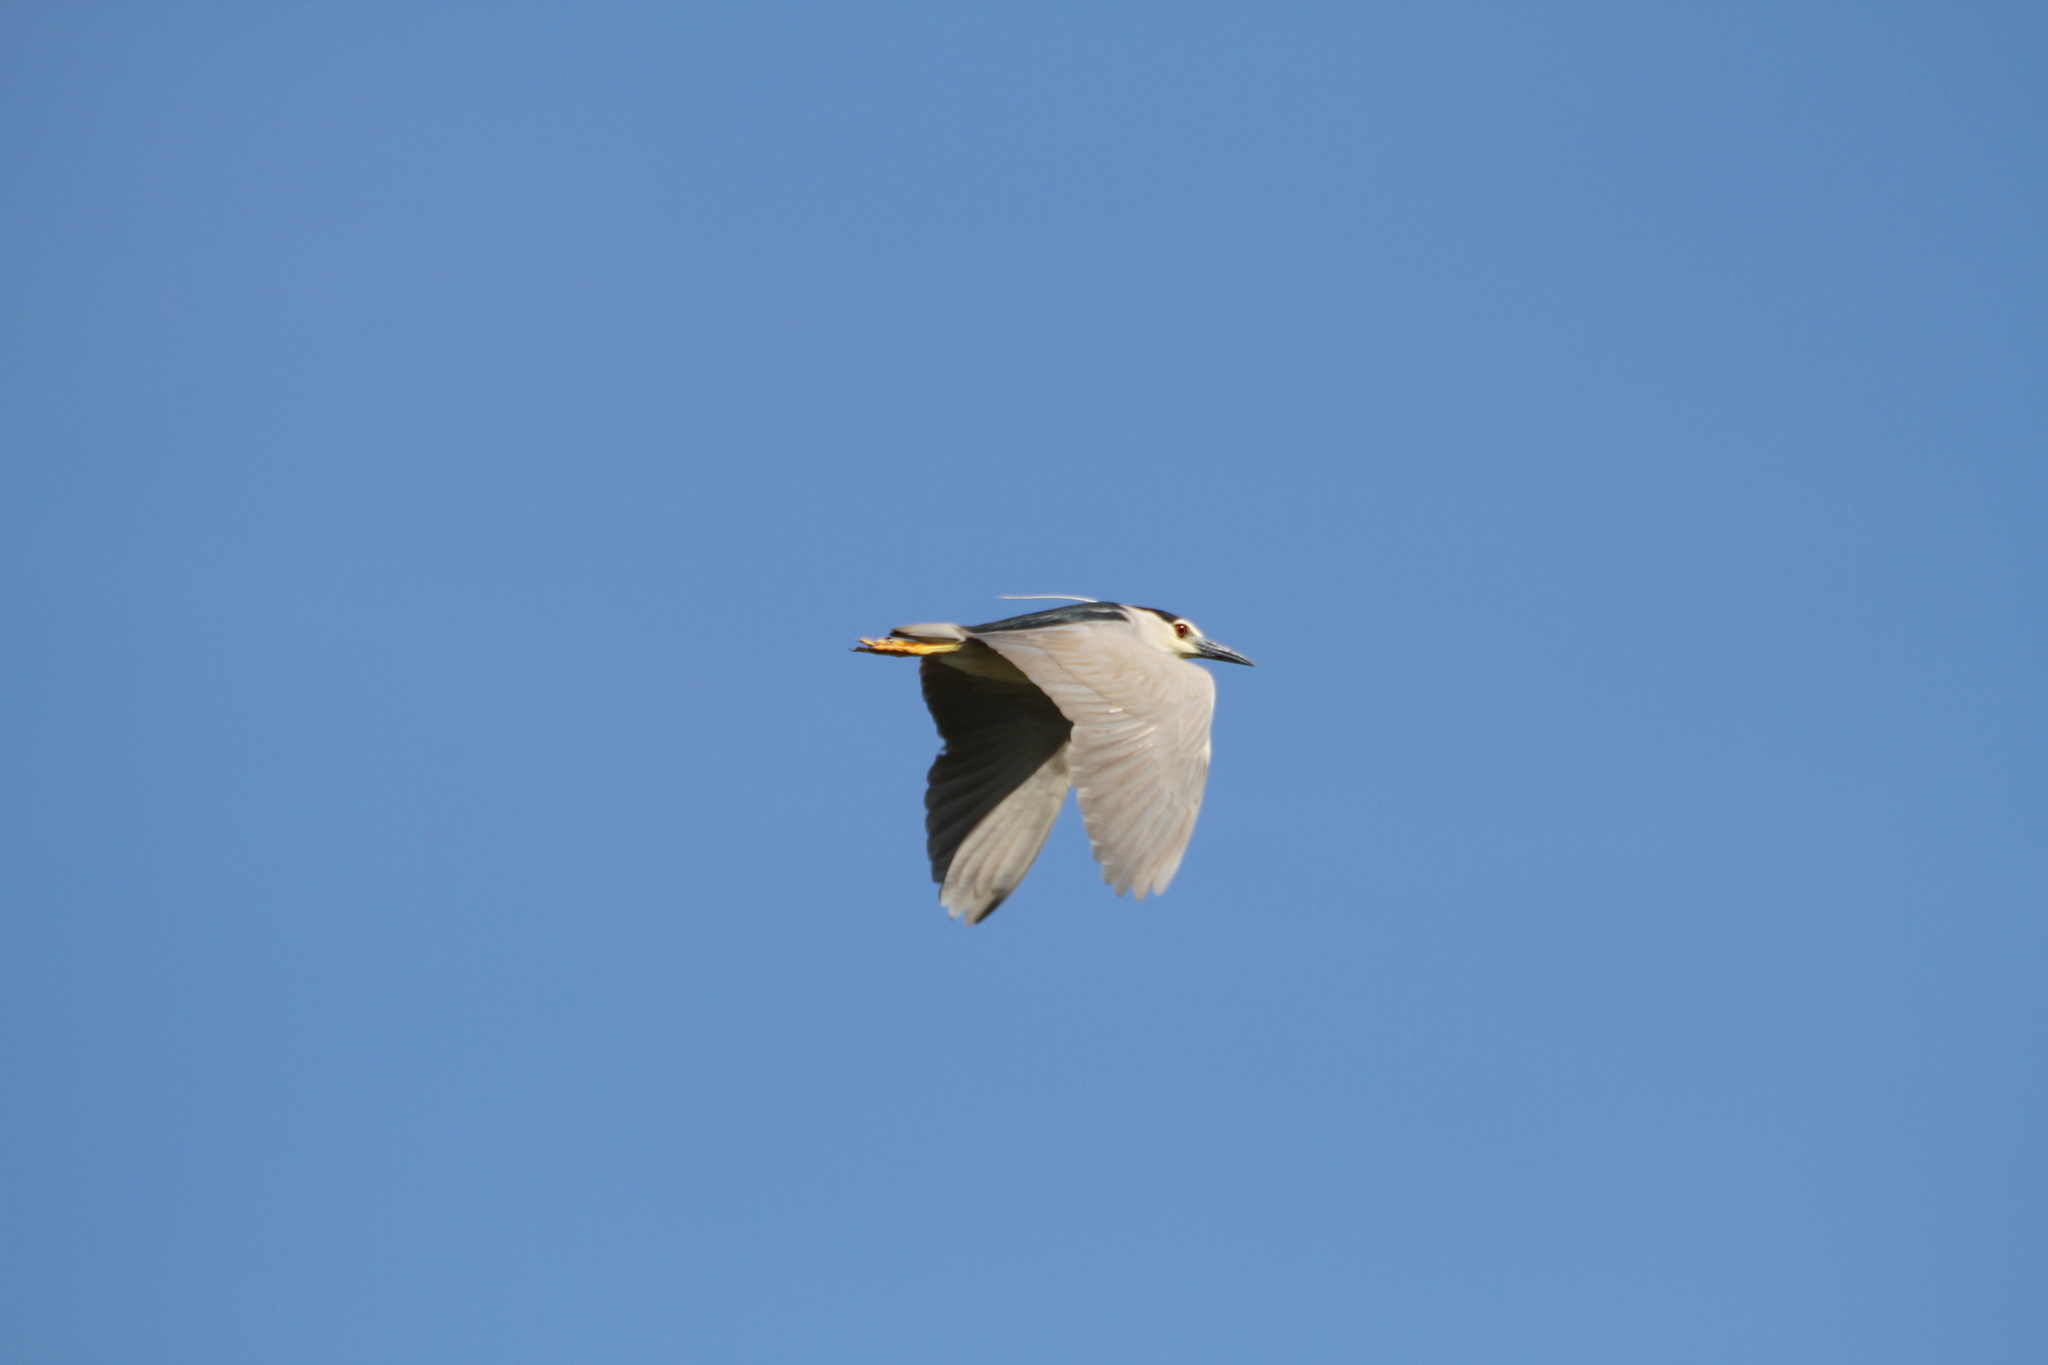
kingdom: Animalia
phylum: Chordata
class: Aves
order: Pelecaniformes
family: Ardeidae
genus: Nycticorax
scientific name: Nycticorax nycticorax
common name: Black-crowned night heron
